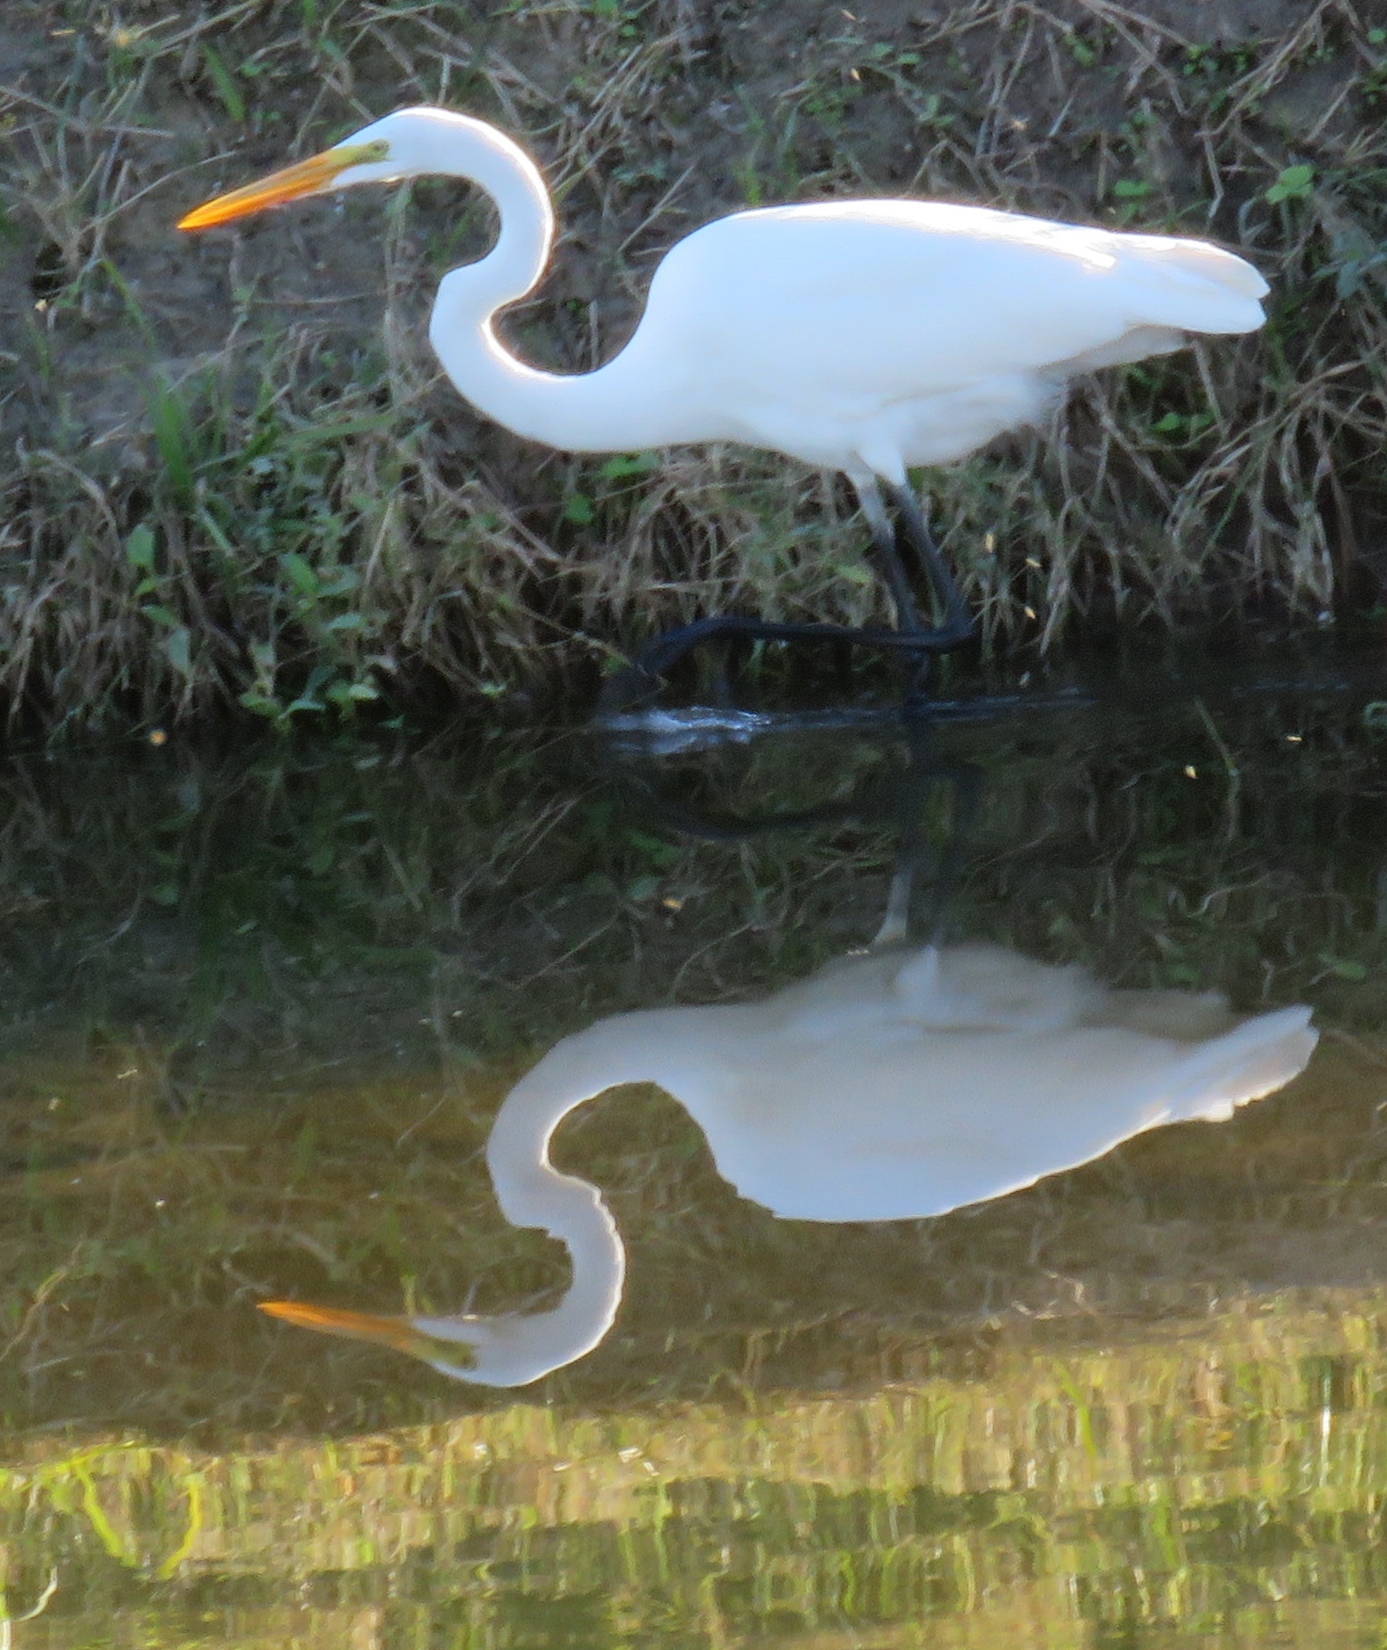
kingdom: Animalia
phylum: Chordata
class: Aves
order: Pelecaniformes
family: Ardeidae
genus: Ardea
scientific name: Ardea alba
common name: Great egret
